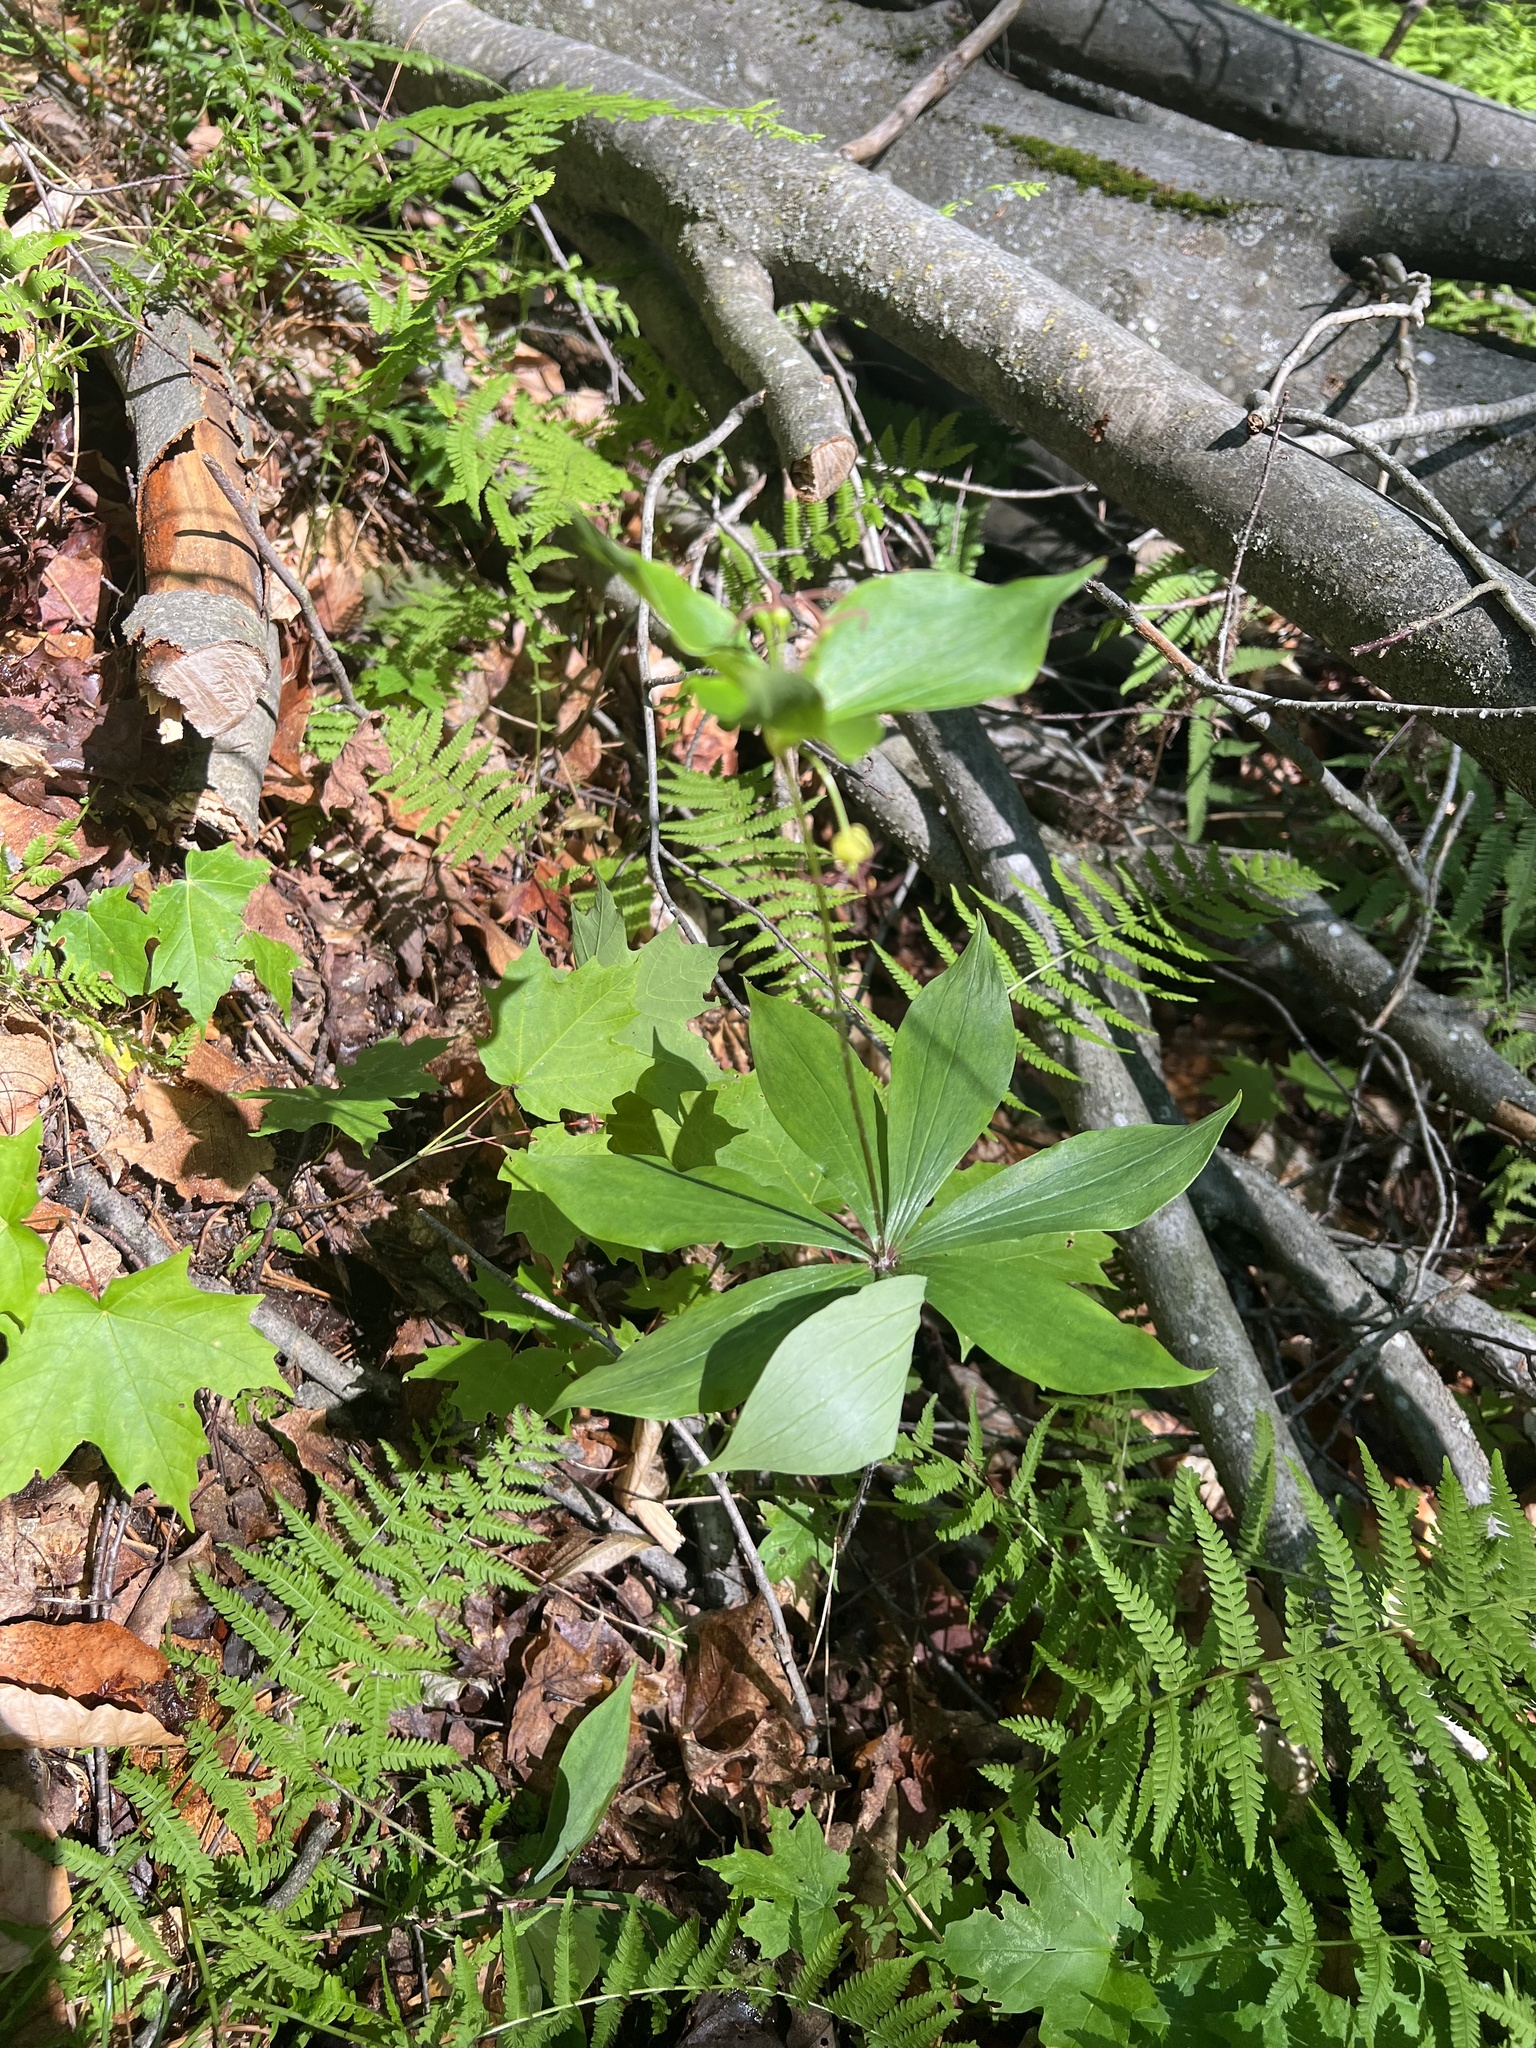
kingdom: Plantae
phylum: Tracheophyta
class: Liliopsida
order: Liliales
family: Liliaceae
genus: Medeola
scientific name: Medeola virginiana
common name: Indian cucumber-root
